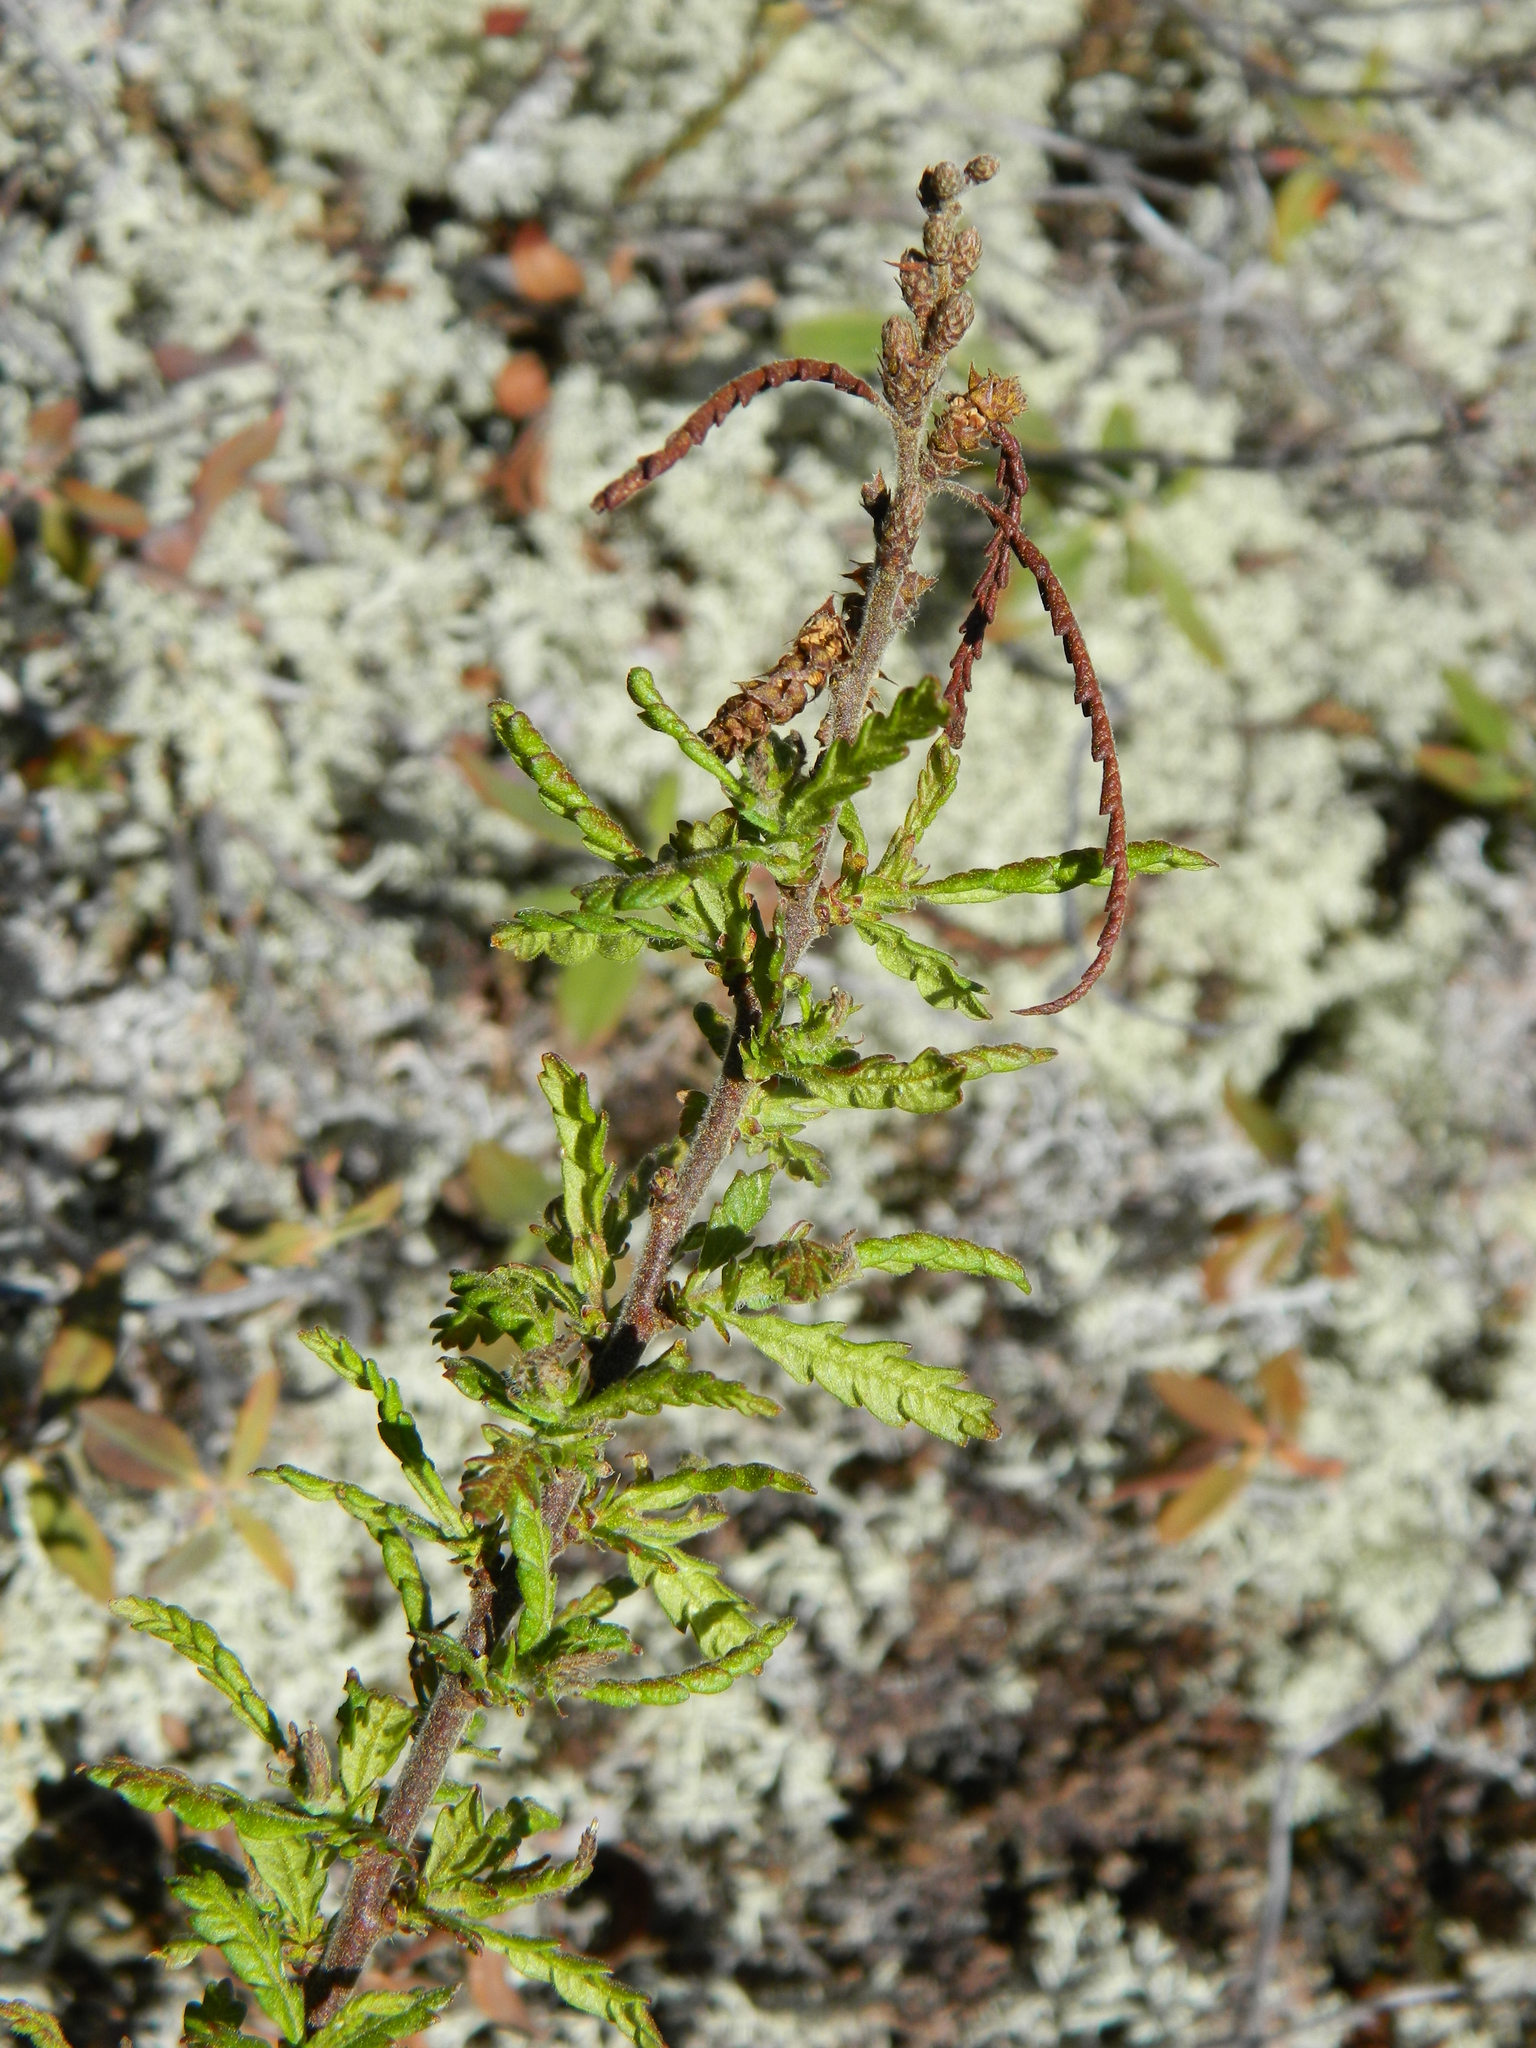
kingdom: Plantae
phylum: Tracheophyta
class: Magnoliopsida
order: Fagales
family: Myricaceae
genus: Comptonia
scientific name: Comptonia peregrina
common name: Sweet-fern
